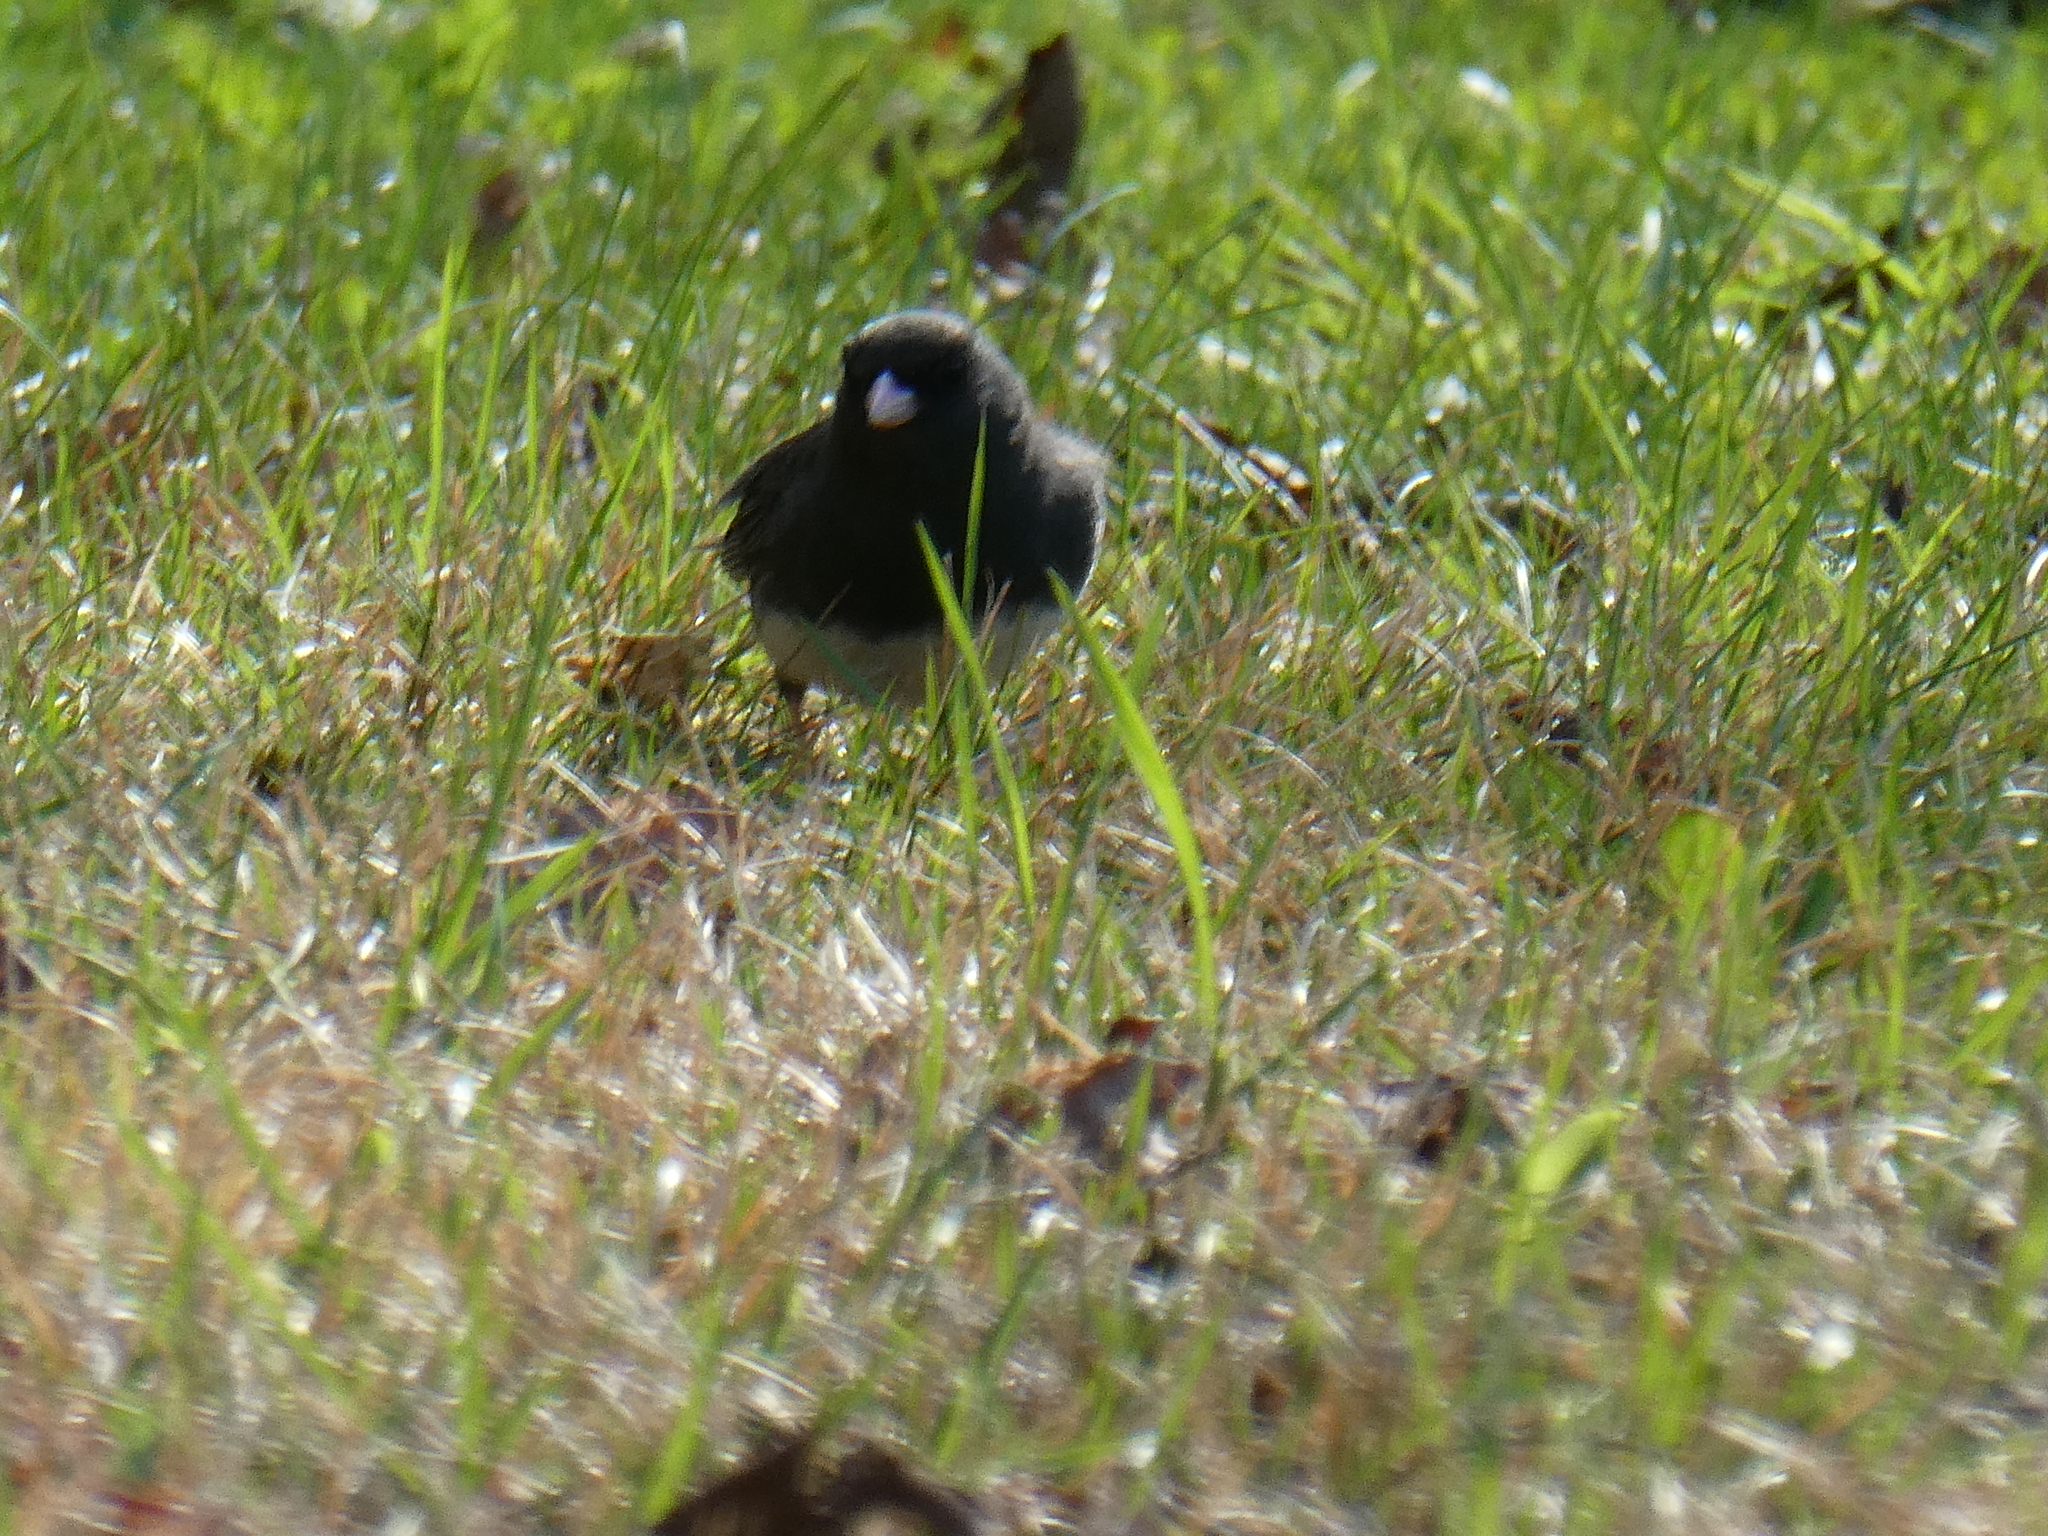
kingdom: Animalia
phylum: Chordata
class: Aves
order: Passeriformes
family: Passerellidae
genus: Junco
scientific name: Junco hyemalis
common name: Dark-eyed junco
